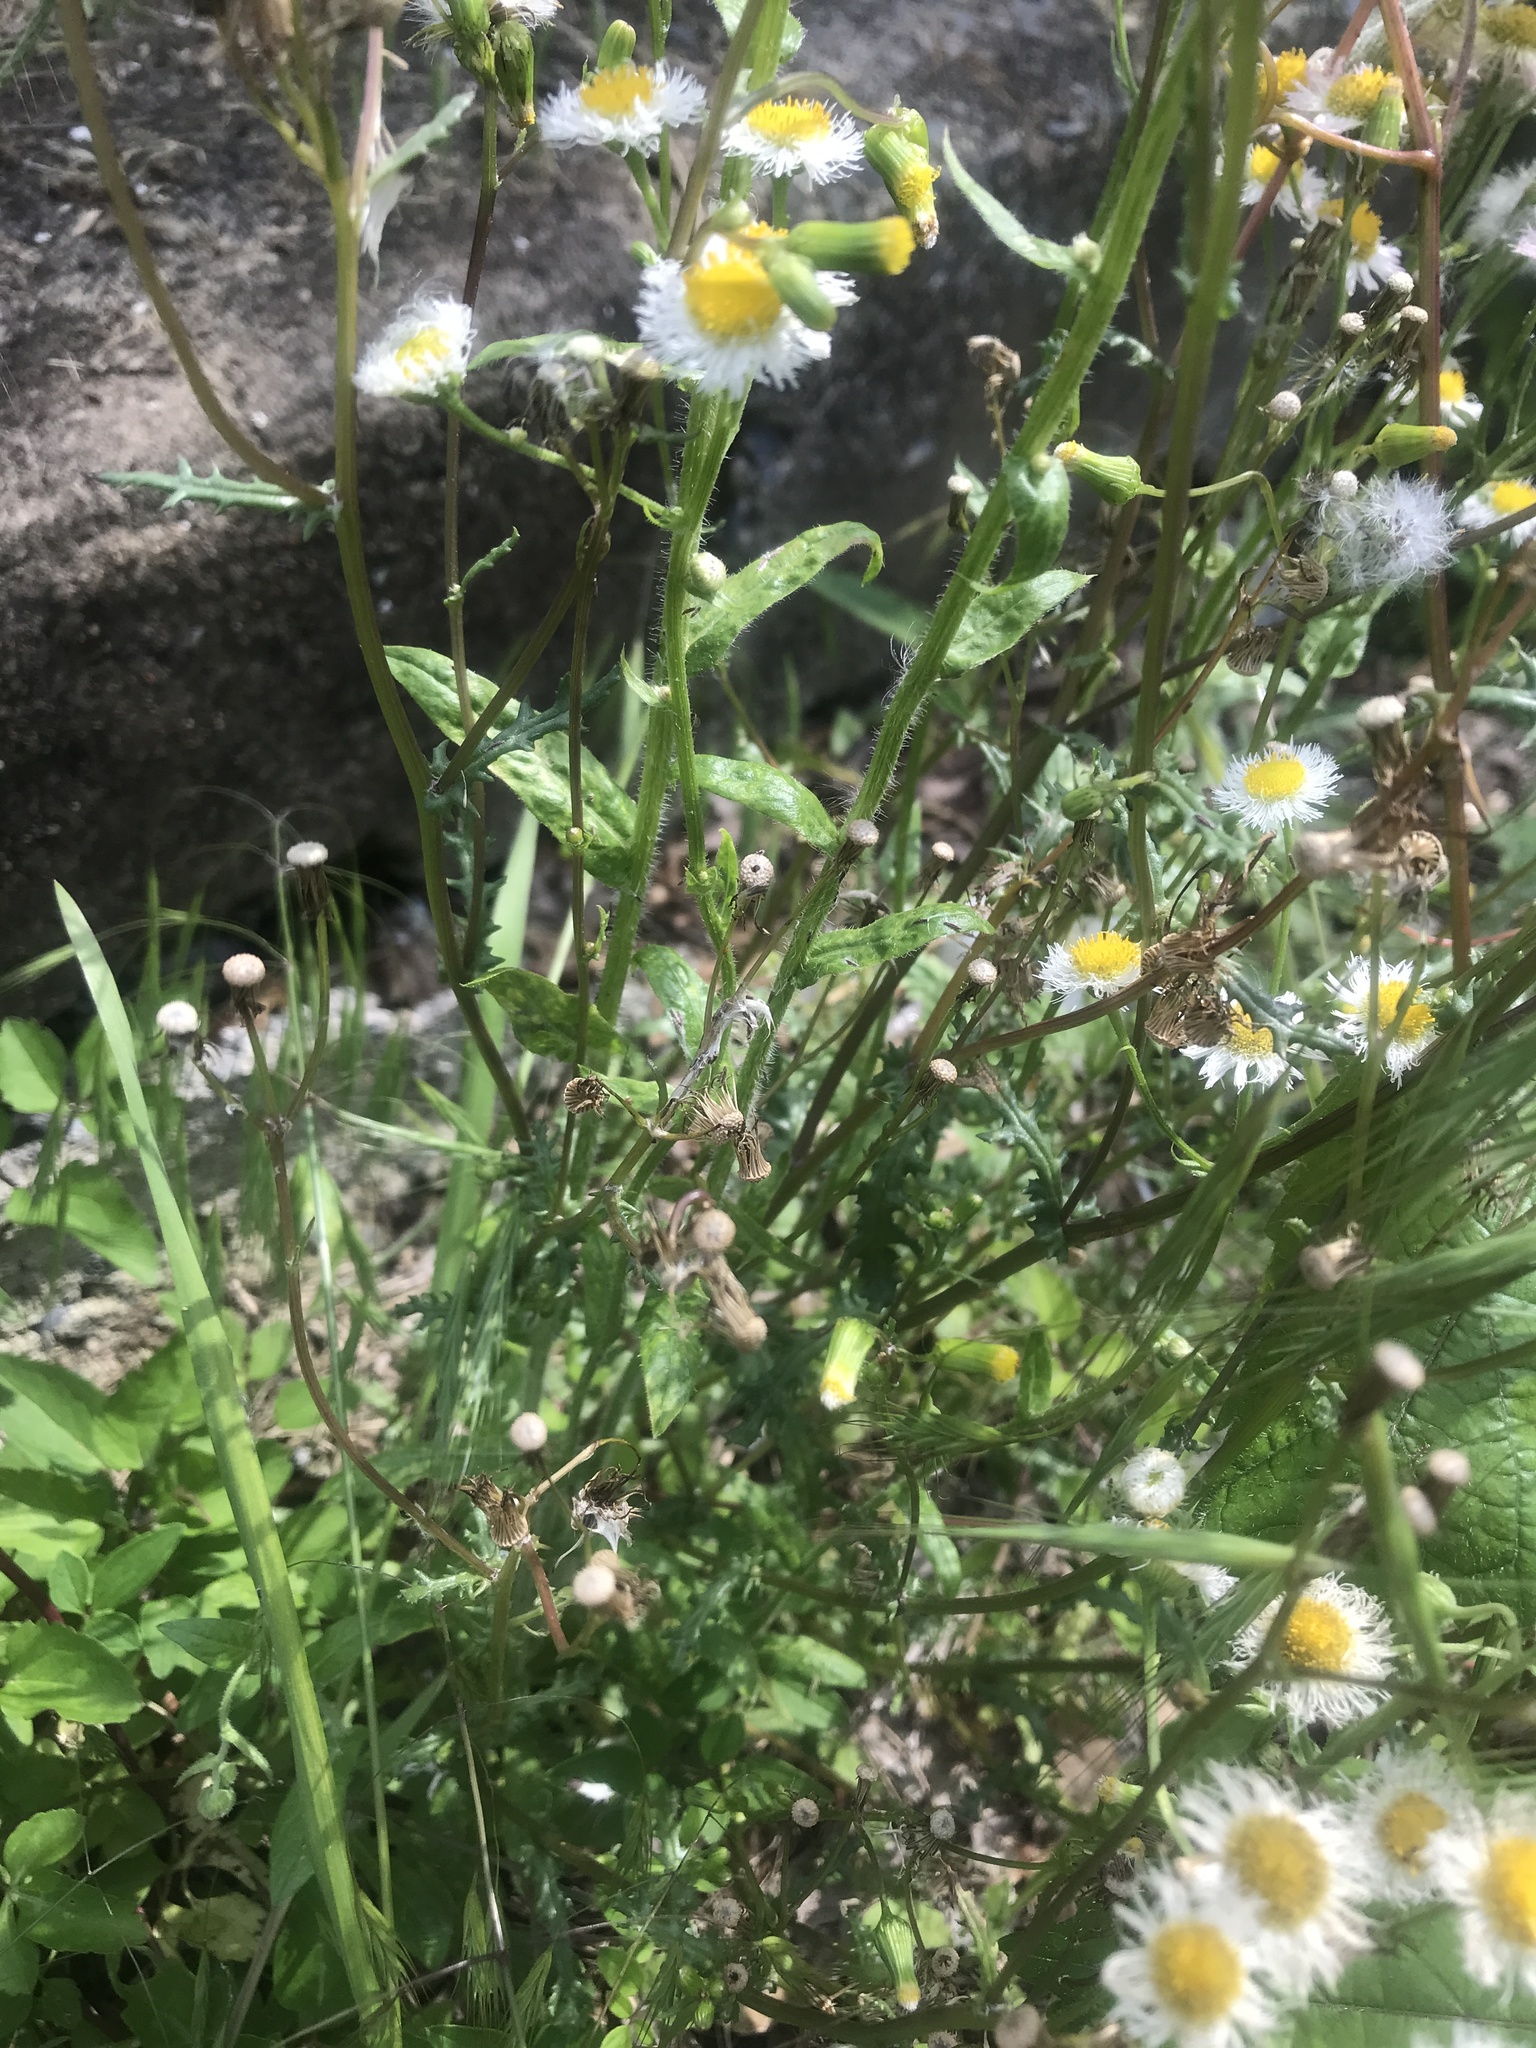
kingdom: Plantae
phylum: Tracheophyta
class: Magnoliopsida
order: Asterales
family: Asteraceae
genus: Erigeron
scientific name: Erigeron philadelphicus
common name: Robin's-plantain
